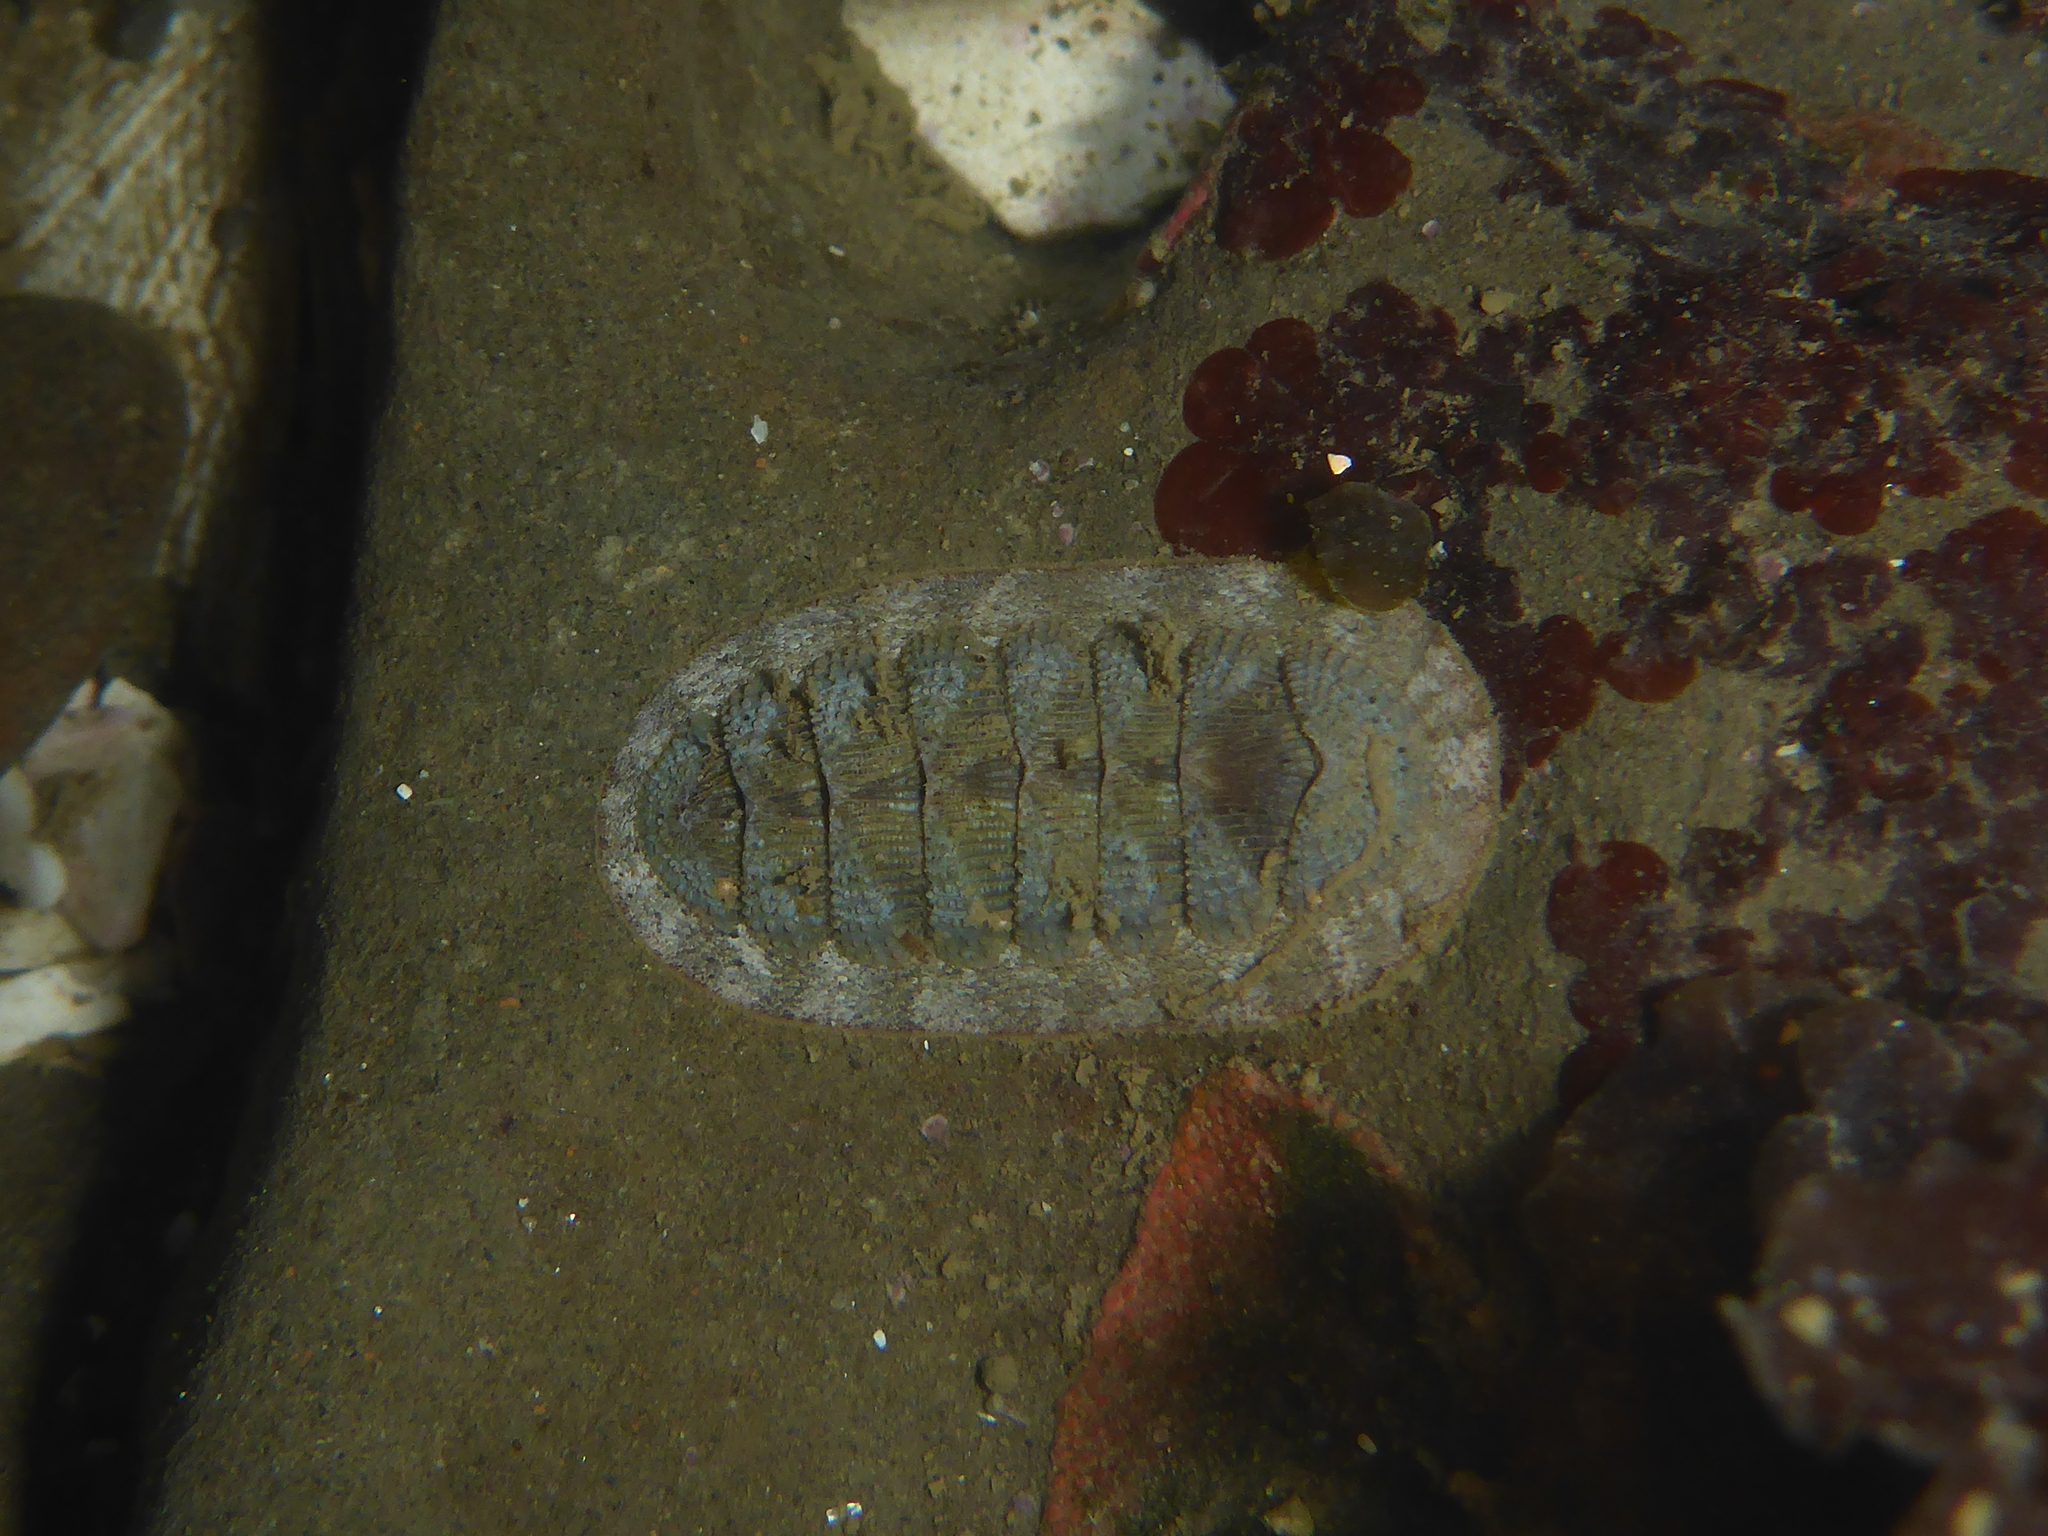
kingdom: Animalia
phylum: Mollusca
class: Polyplacophora
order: Chitonida
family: Ischnochitonidae
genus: Lepidozona
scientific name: Lepidozona cooperi
